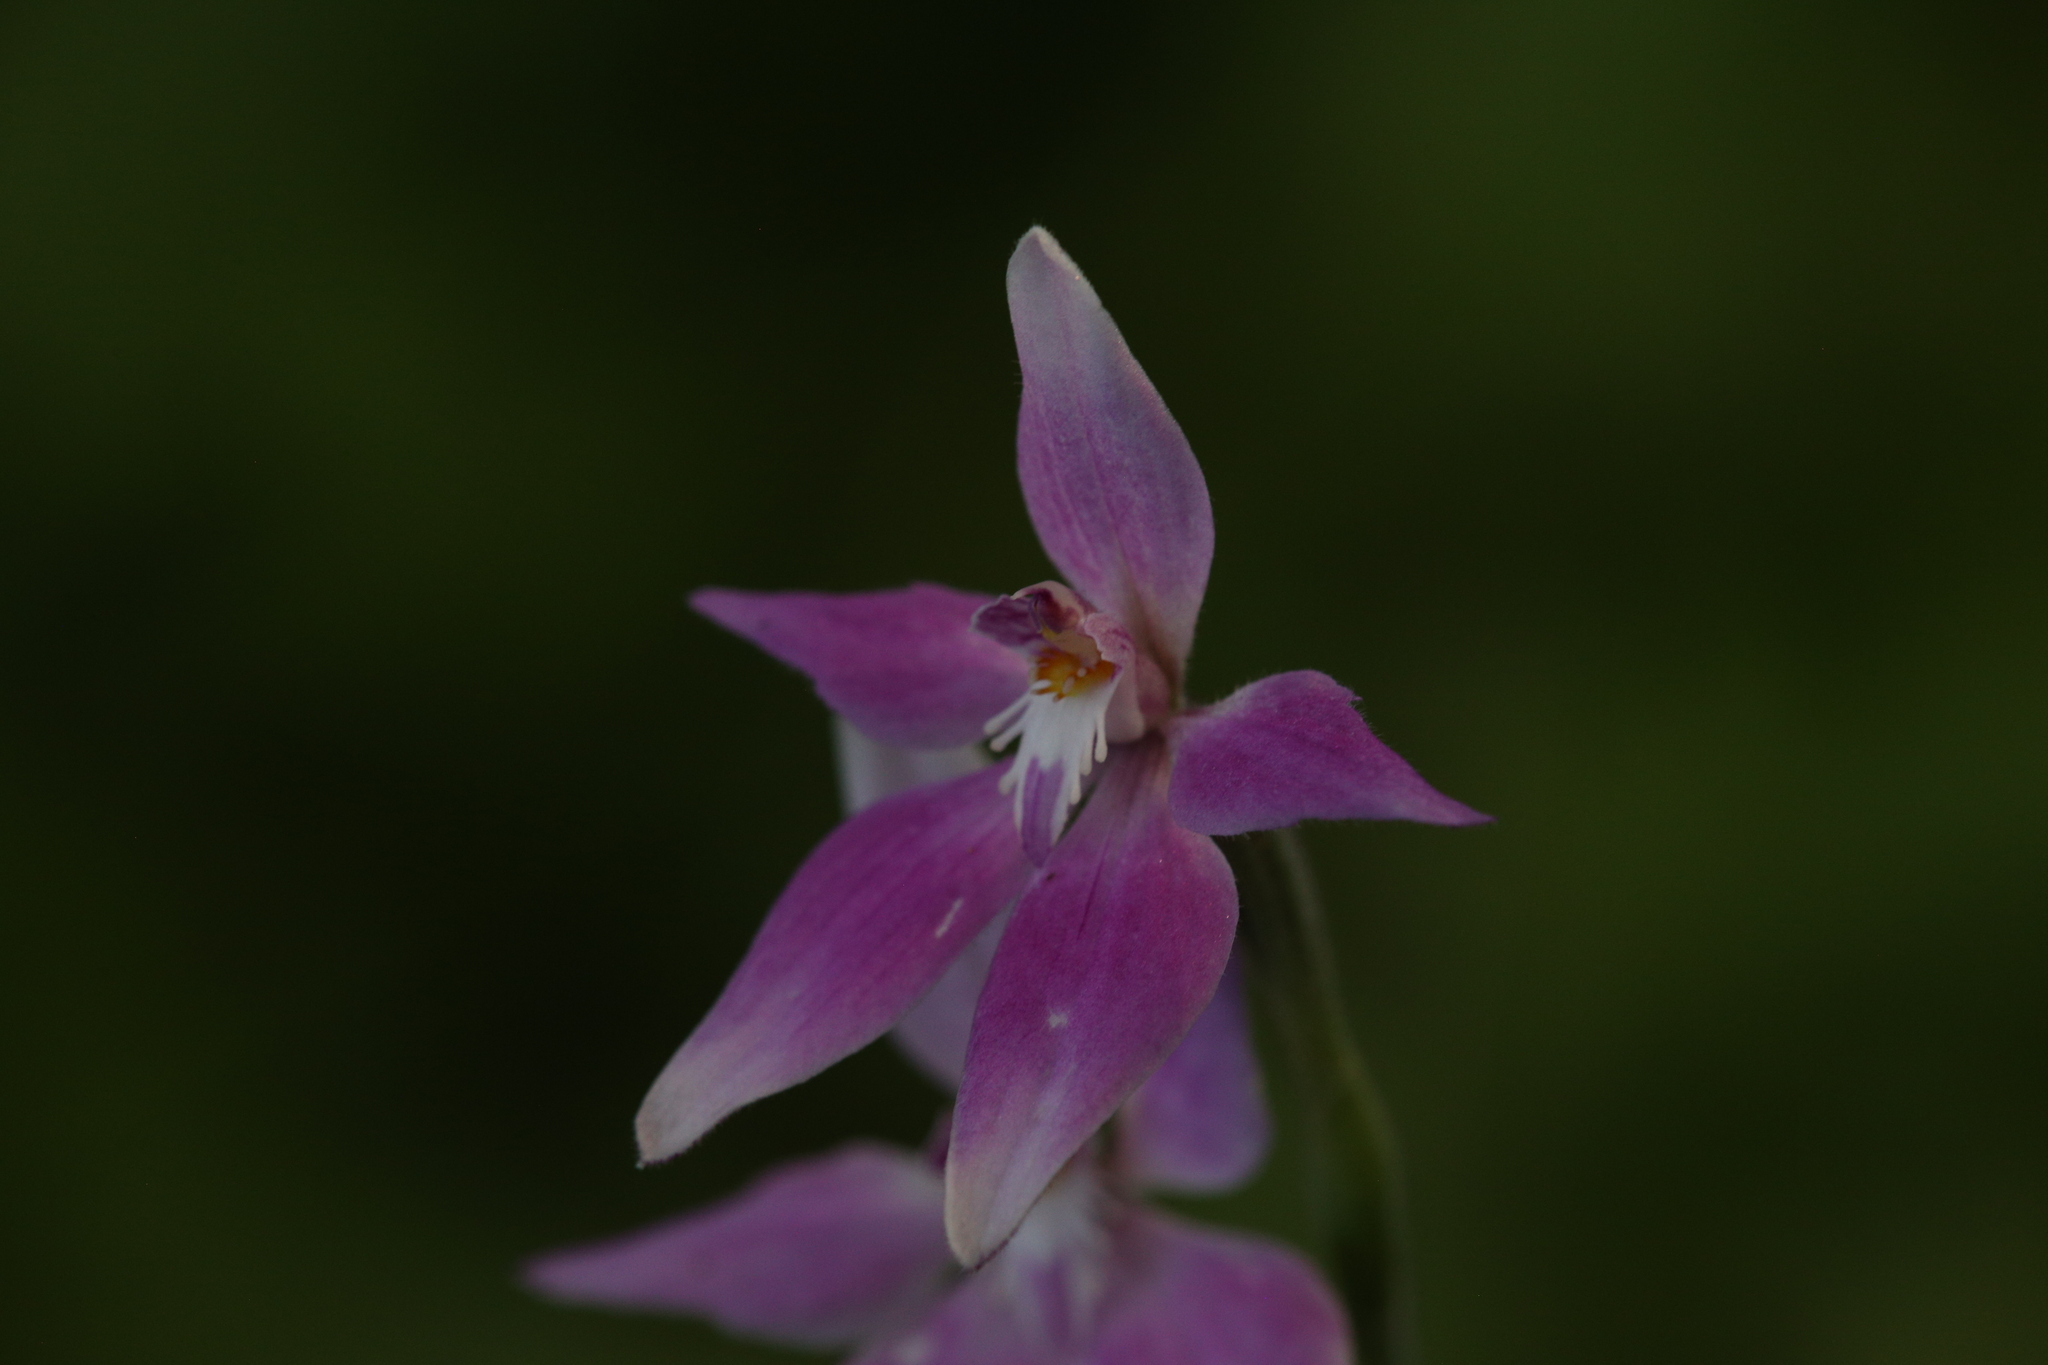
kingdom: Plantae
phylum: Tracheophyta
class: Liliopsida
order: Asparagales
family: Orchidaceae
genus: Caladenia
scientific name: Caladenia latifolia
